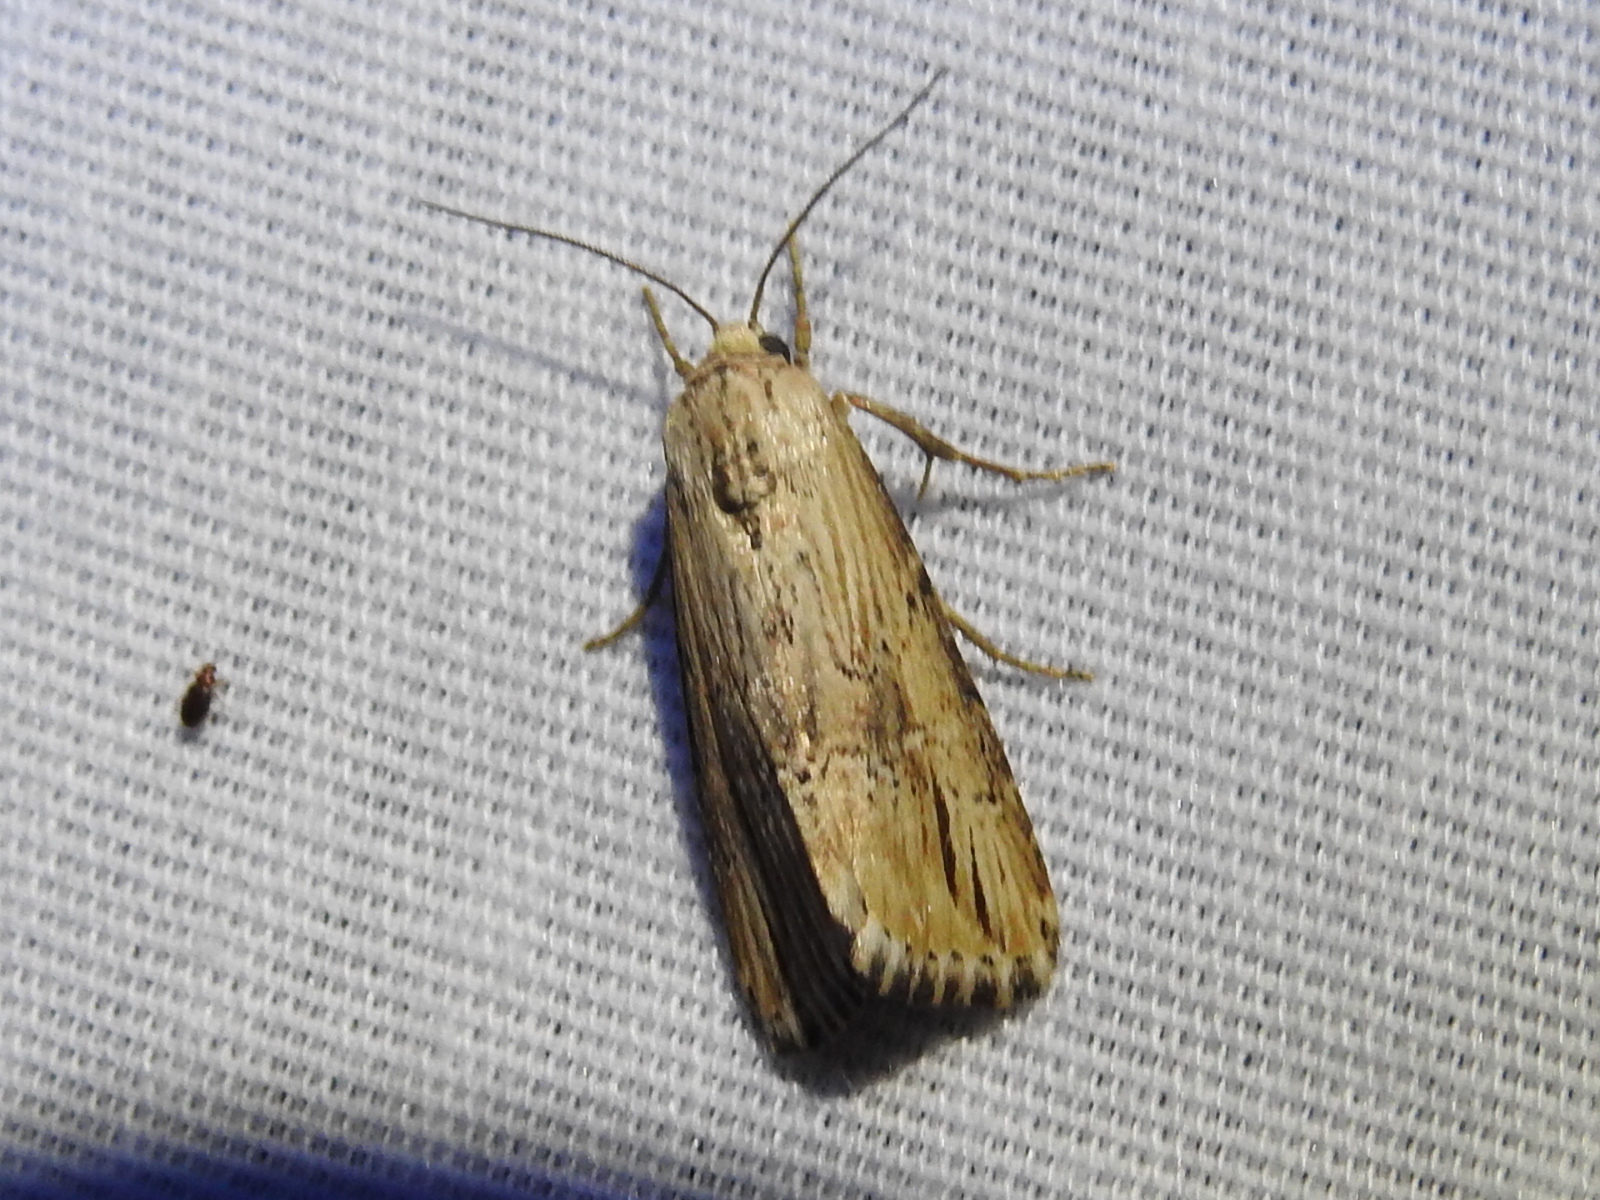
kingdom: Animalia
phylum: Arthropoda
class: Insecta
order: Lepidoptera
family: Noctuidae
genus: Crambodes
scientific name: Crambodes talidiformis
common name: Verbena moth
